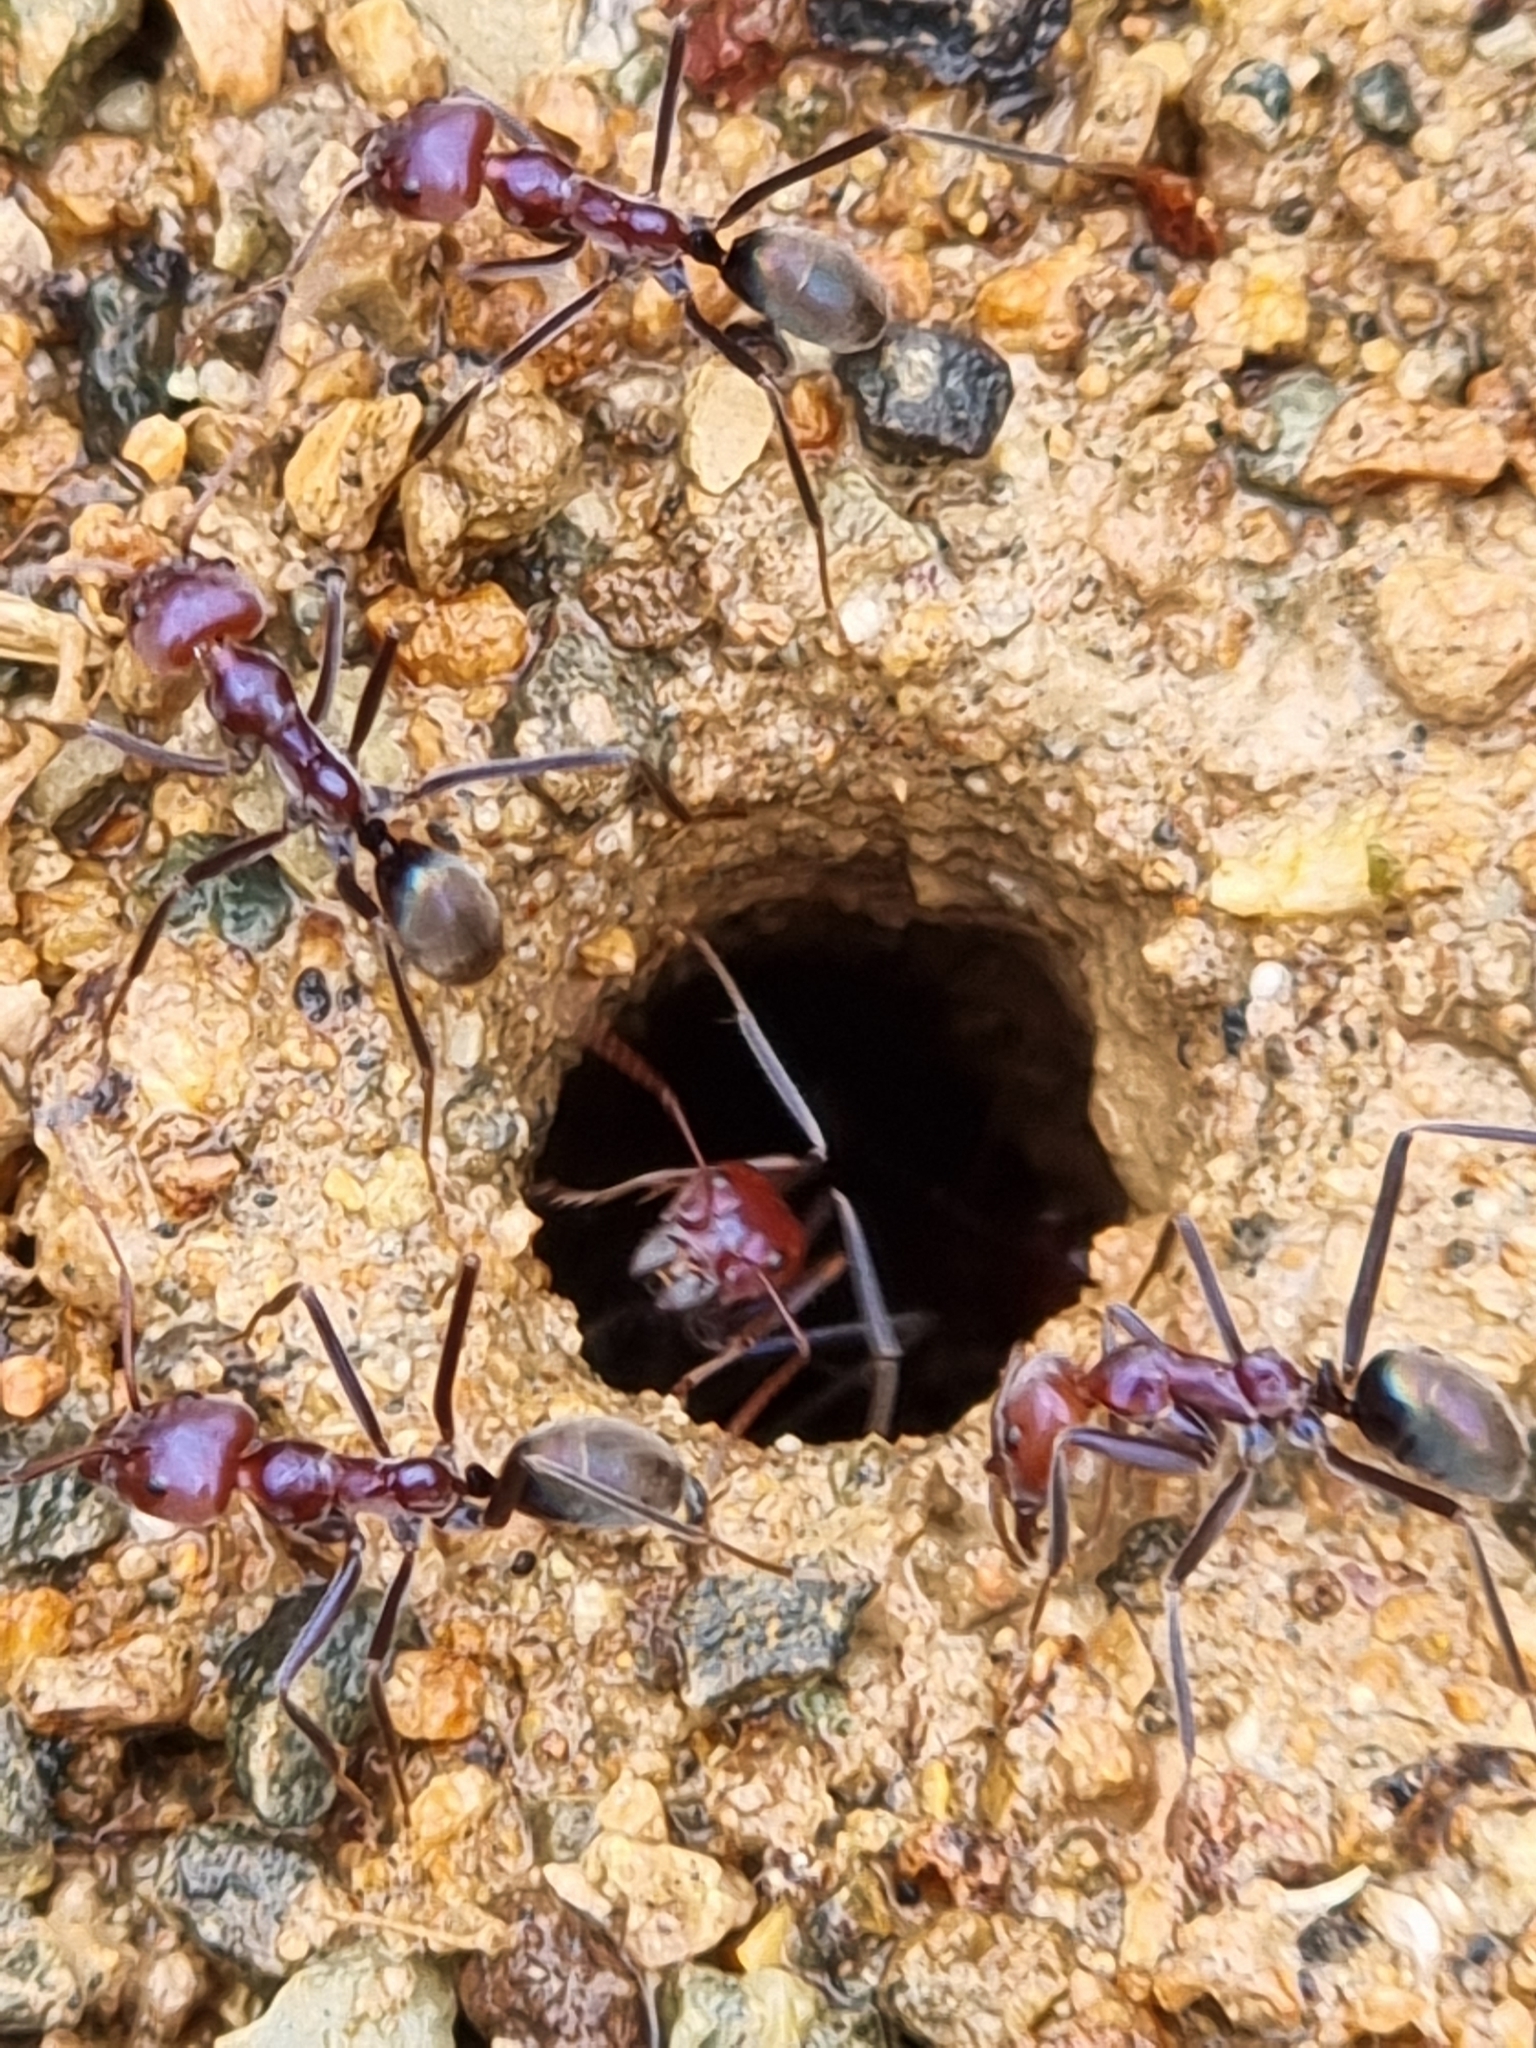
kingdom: Animalia
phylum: Arthropoda
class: Insecta
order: Hymenoptera
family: Formicidae
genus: Iridomyrmex
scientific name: Iridomyrmex purpureus
